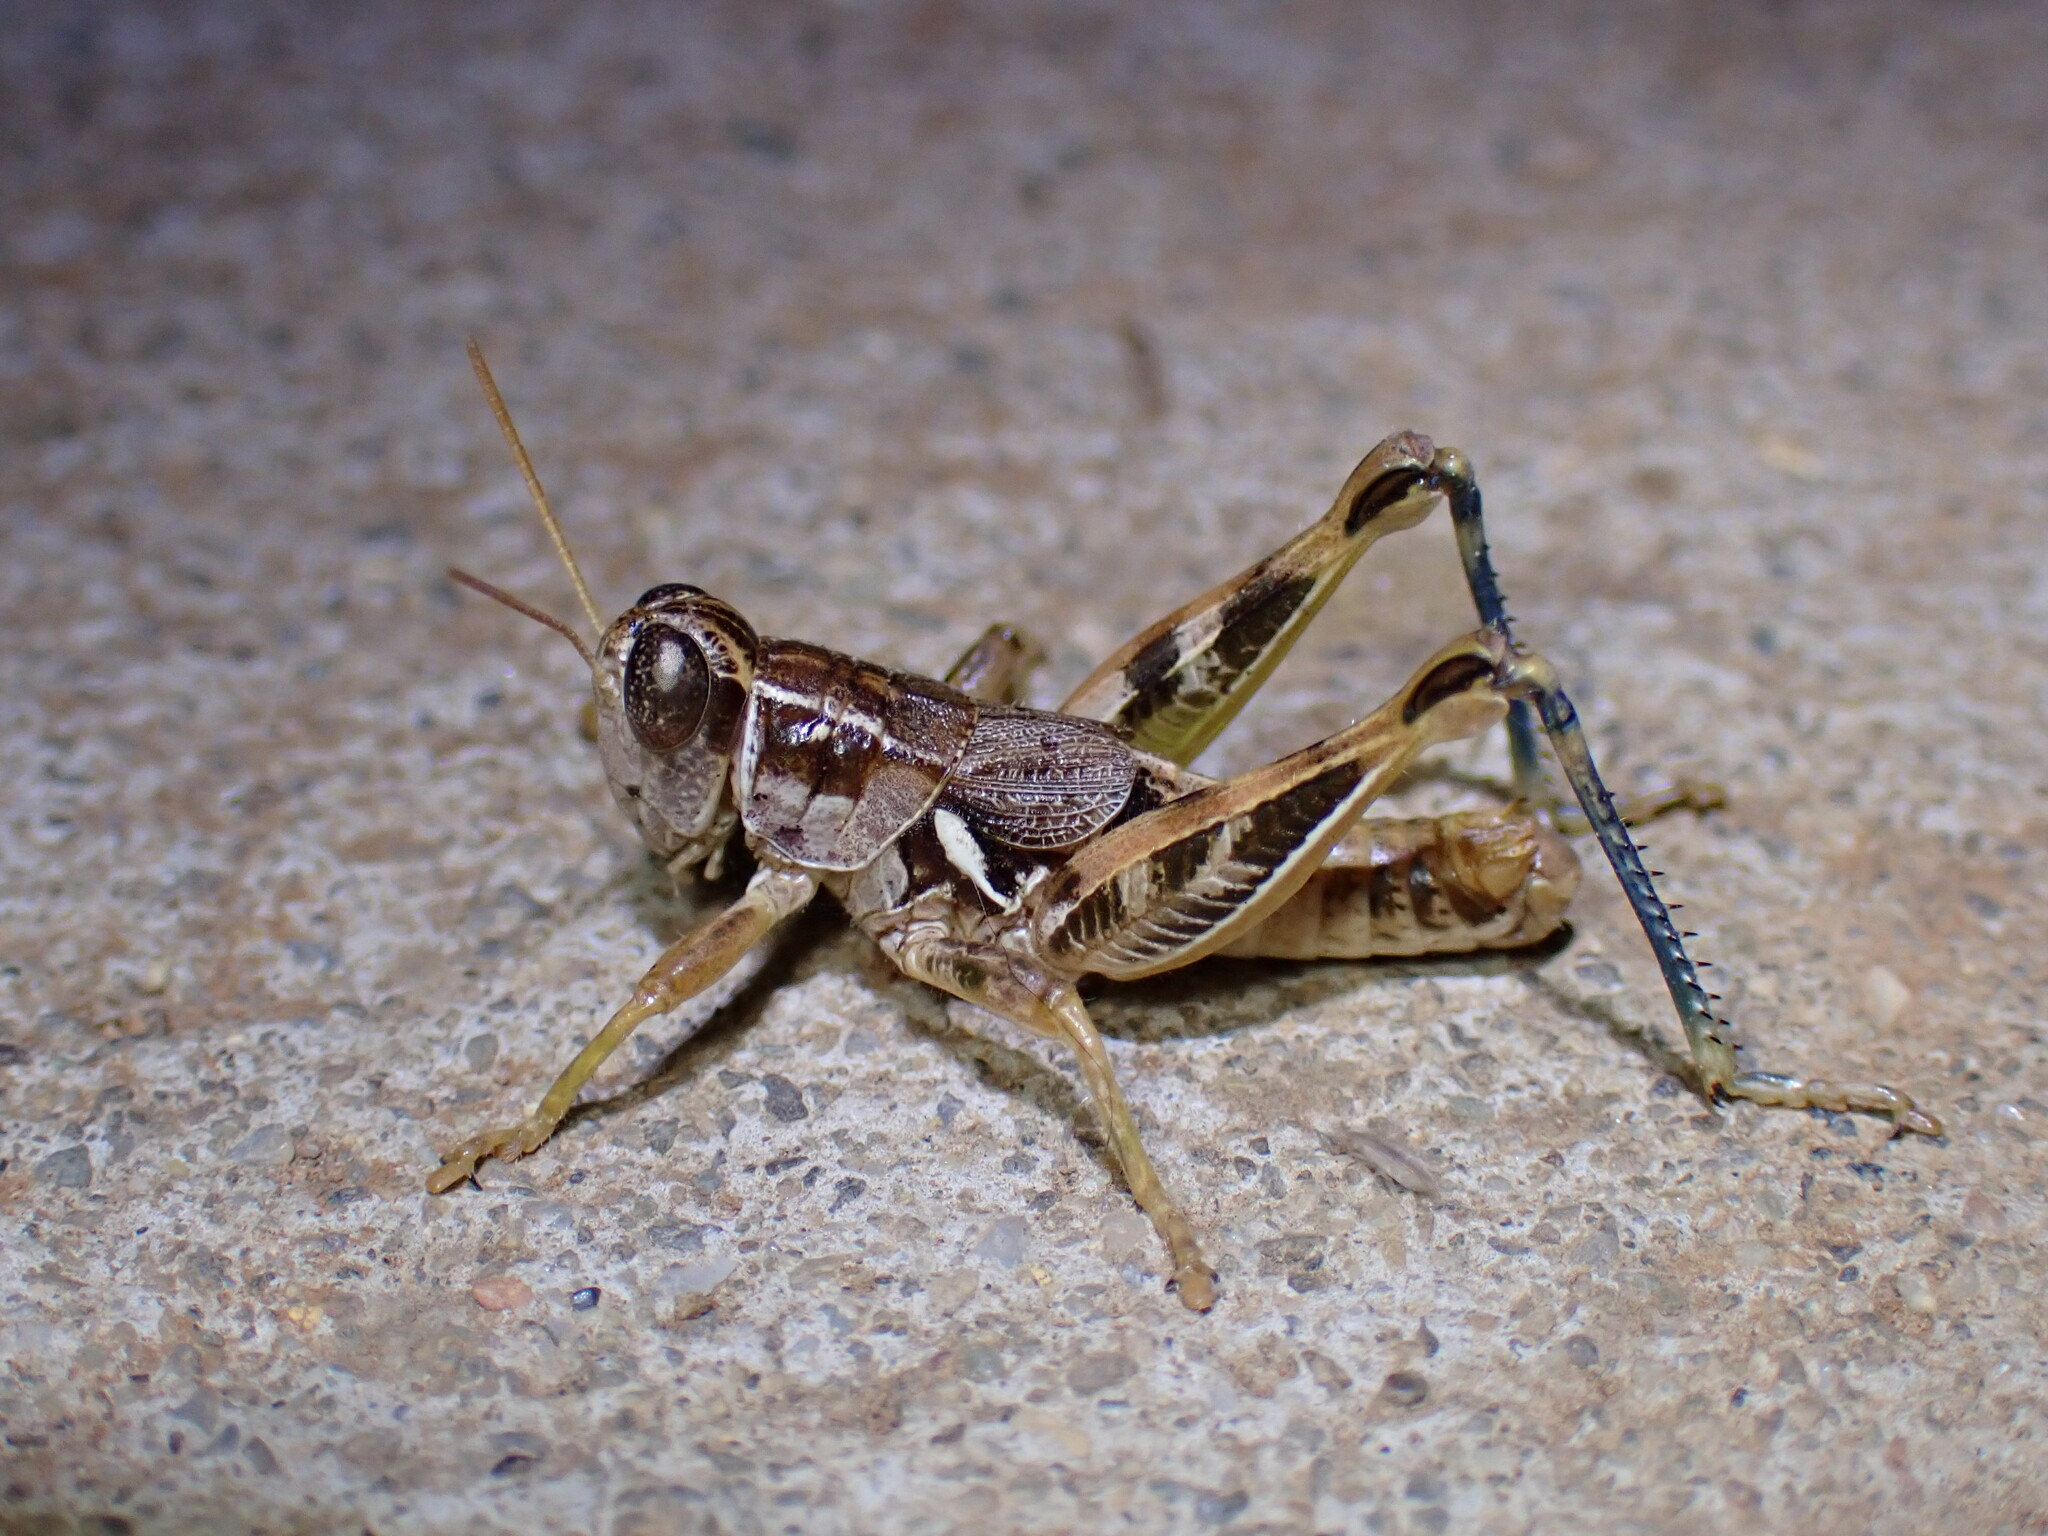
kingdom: Animalia
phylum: Arthropoda
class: Insecta
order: Orthoptera
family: Acrididae
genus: Oedaleonotus
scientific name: Oedaleonotus enigma
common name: Valley grasshopper
